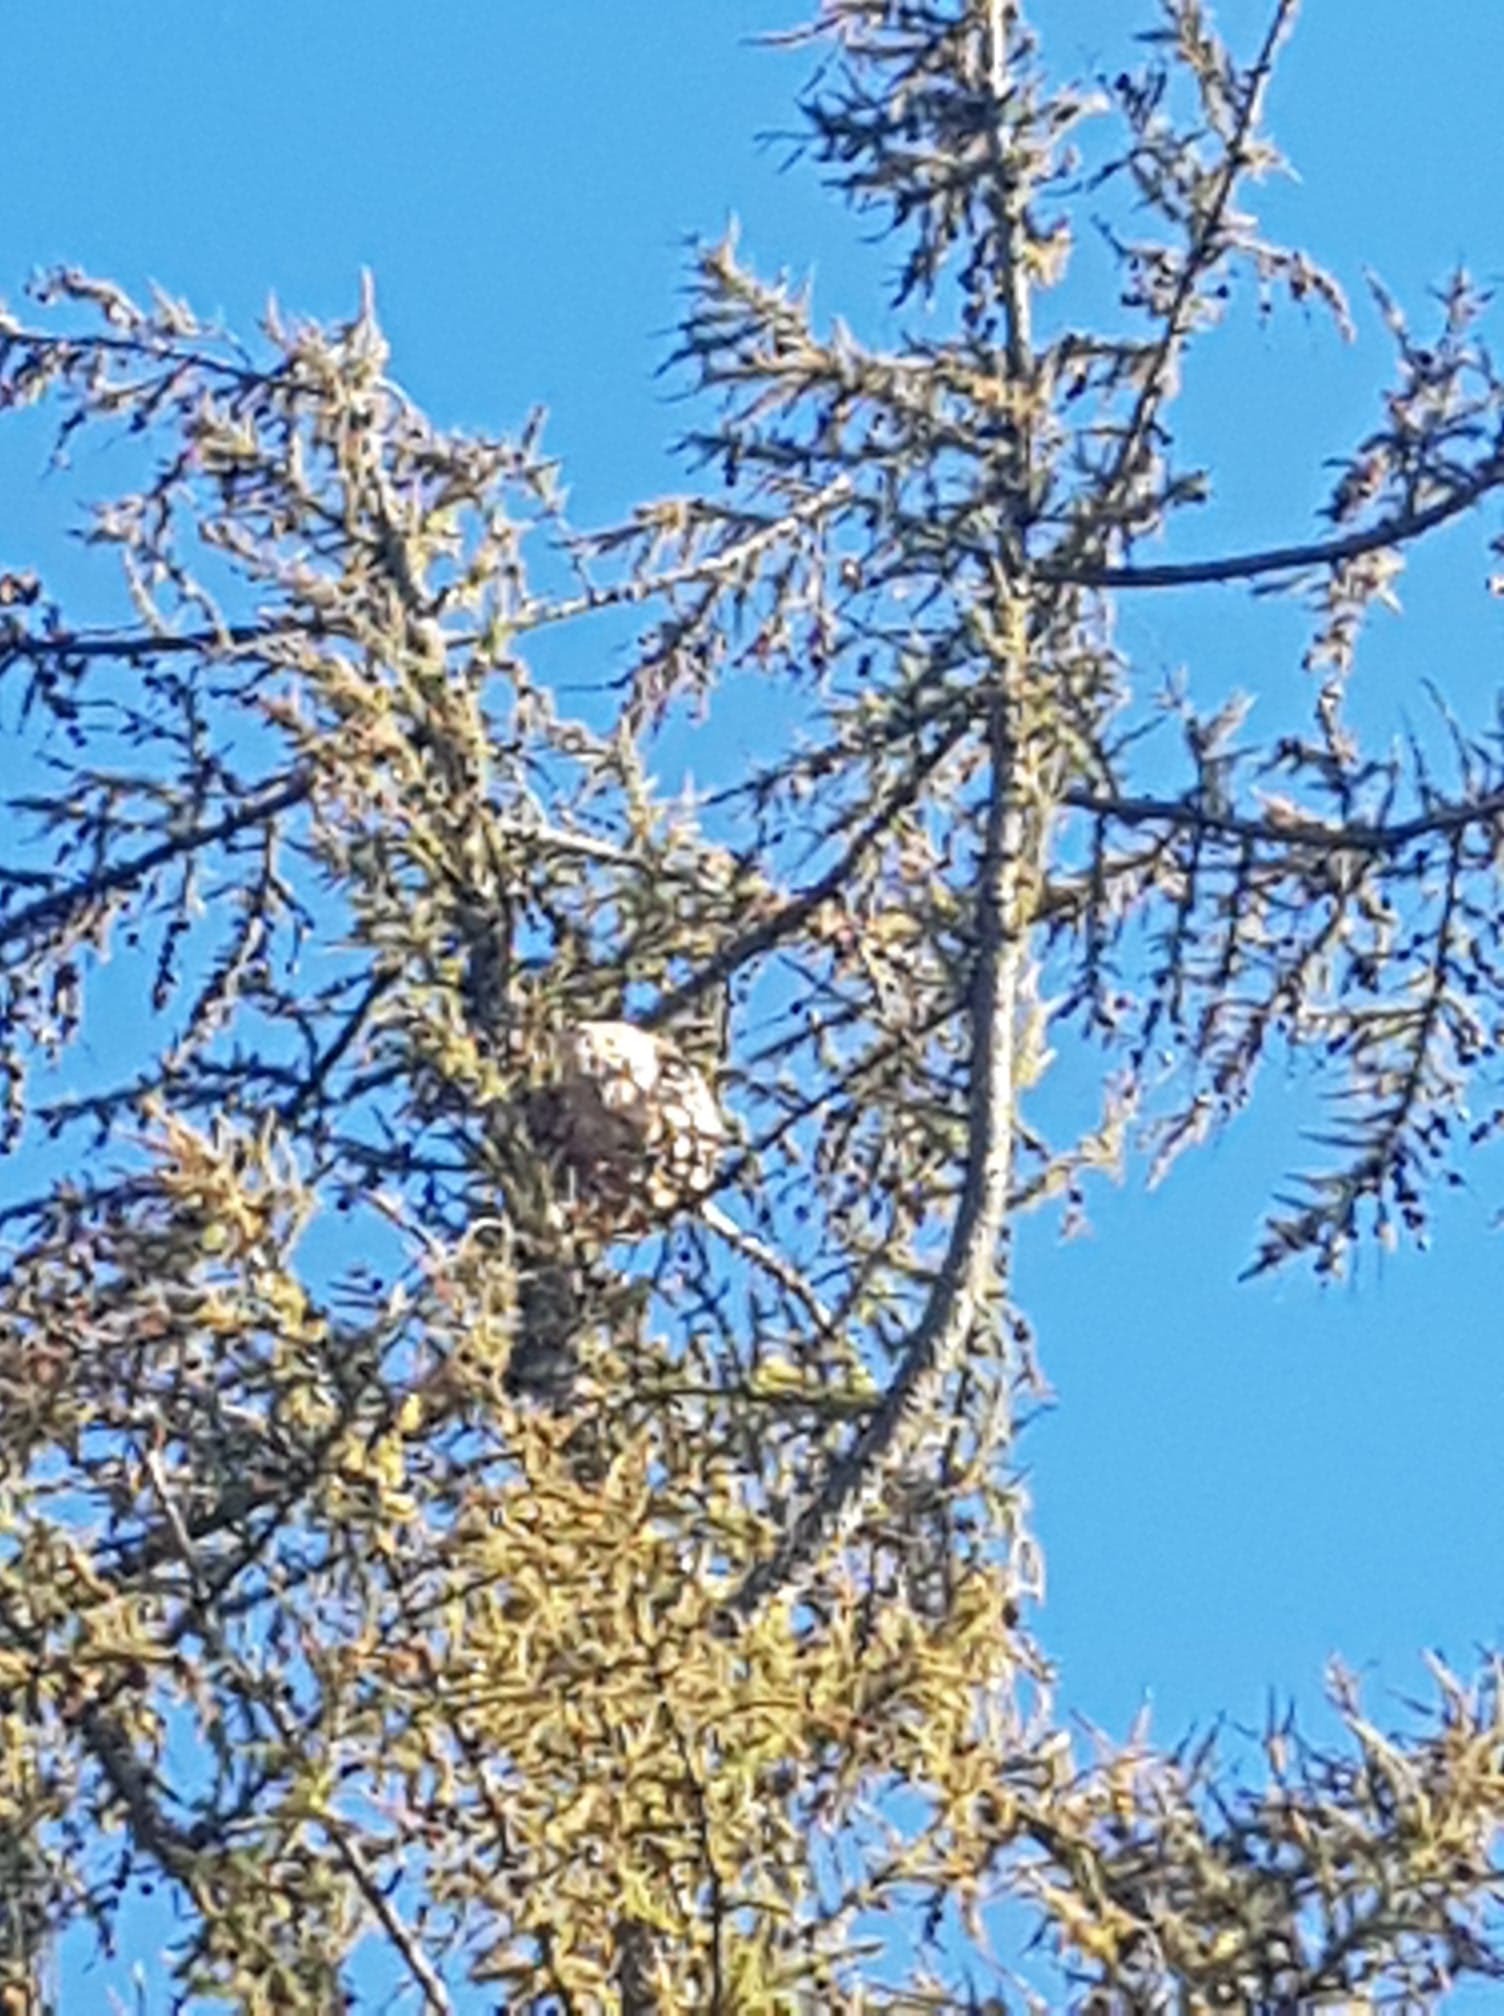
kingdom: Animalia
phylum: Arthropoda
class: Insecta
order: Hymenoptera
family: Vespidae
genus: Vespa
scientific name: Vespa velutina
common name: Asian hornet
